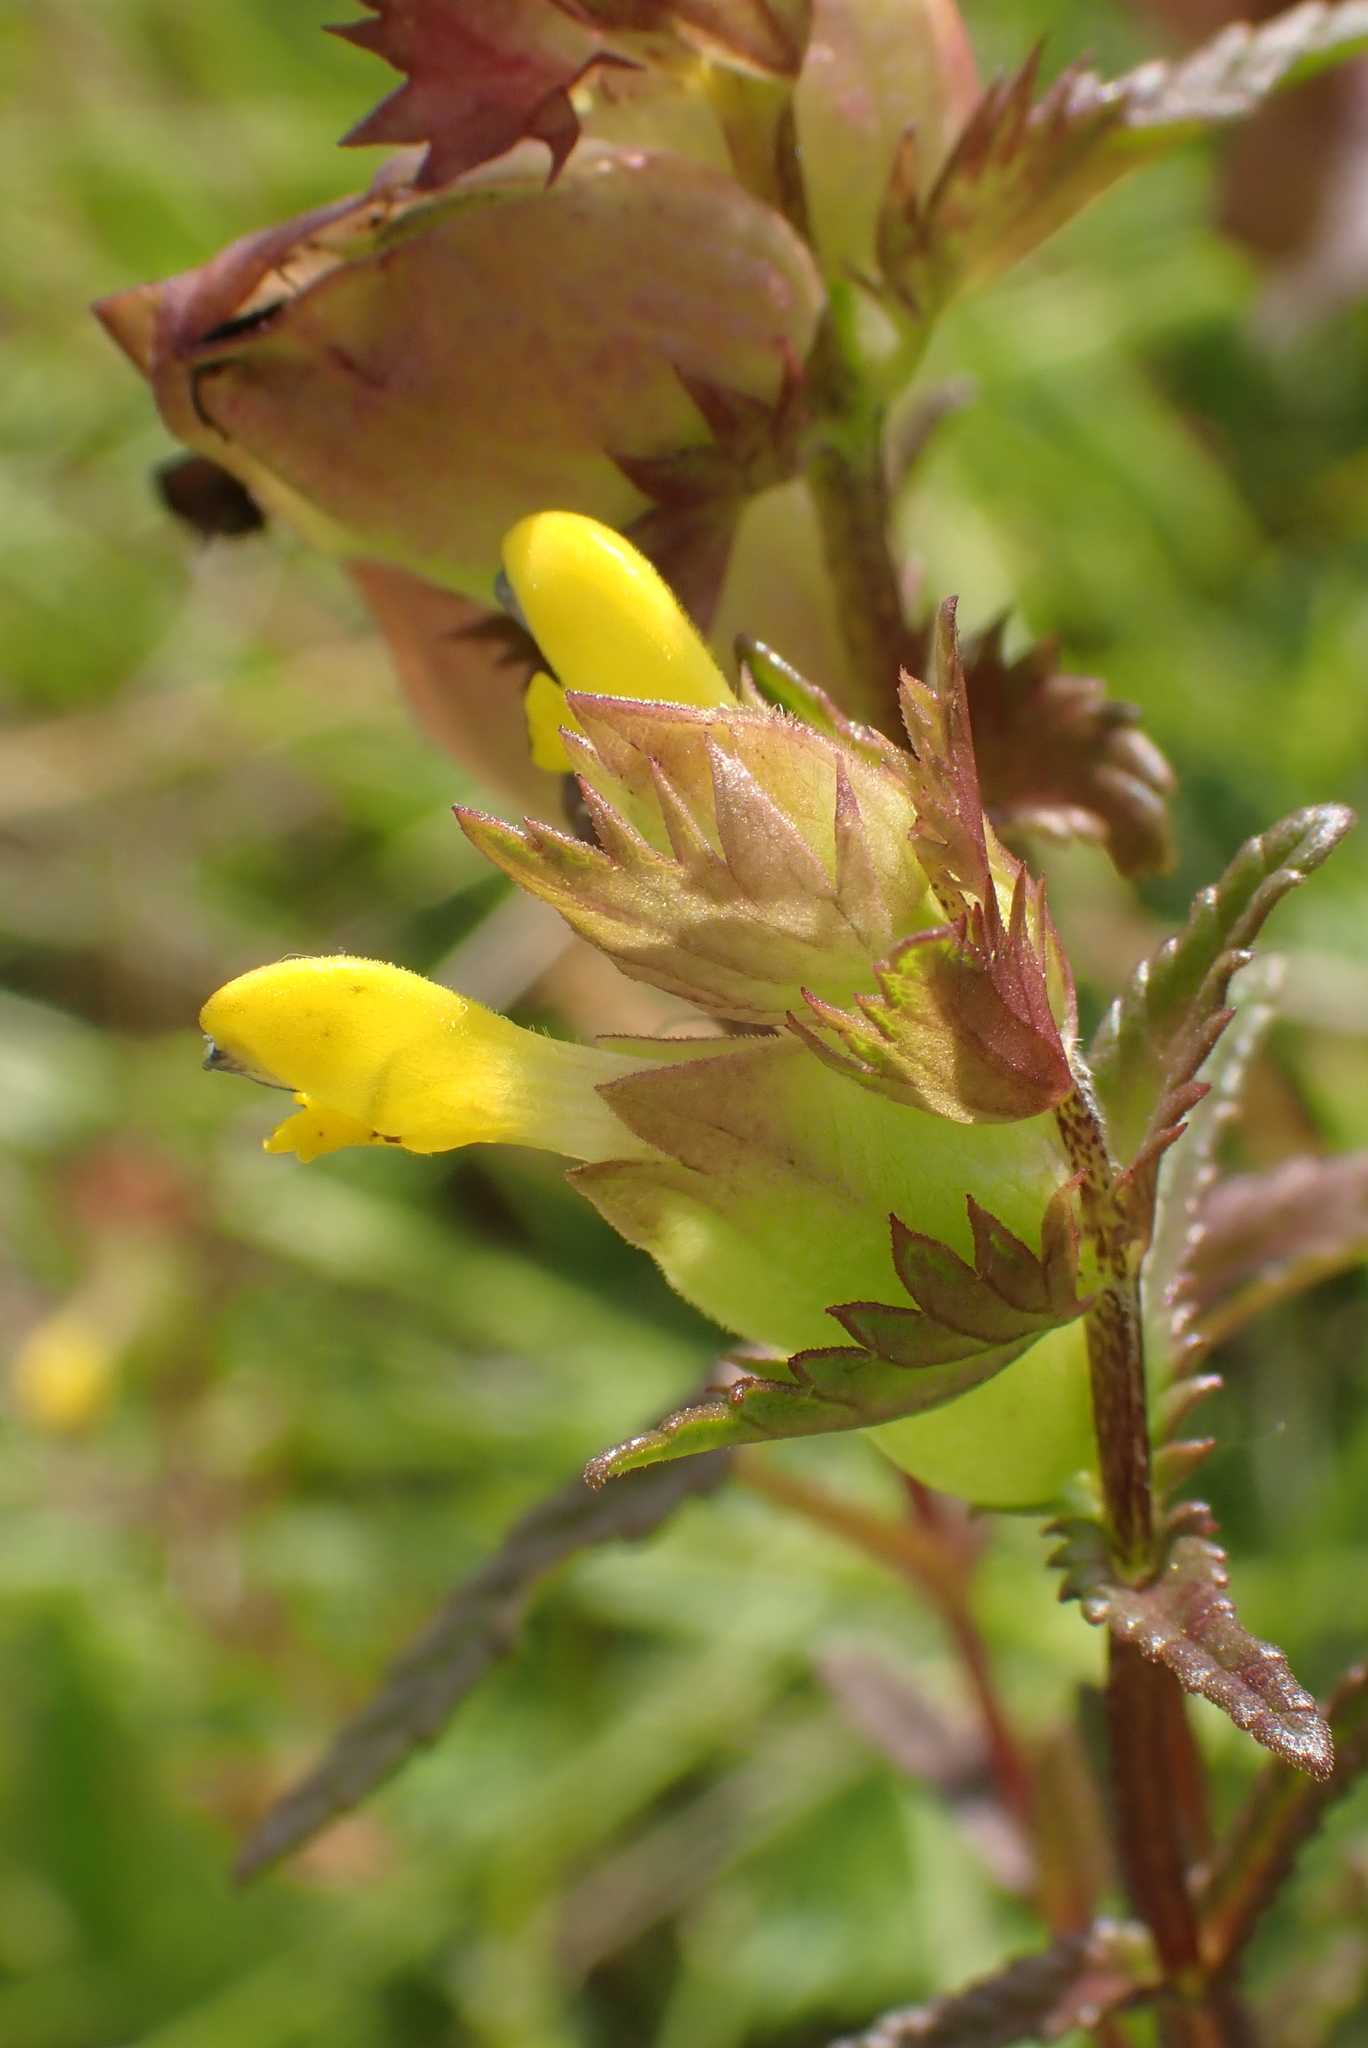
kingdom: Plantae
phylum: Tracheophyta
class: Magnoliopsida
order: Lamiales
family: Orobanchaceae
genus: Rhinanthus
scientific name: Rhinanthus minor
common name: Yellow-rattle
